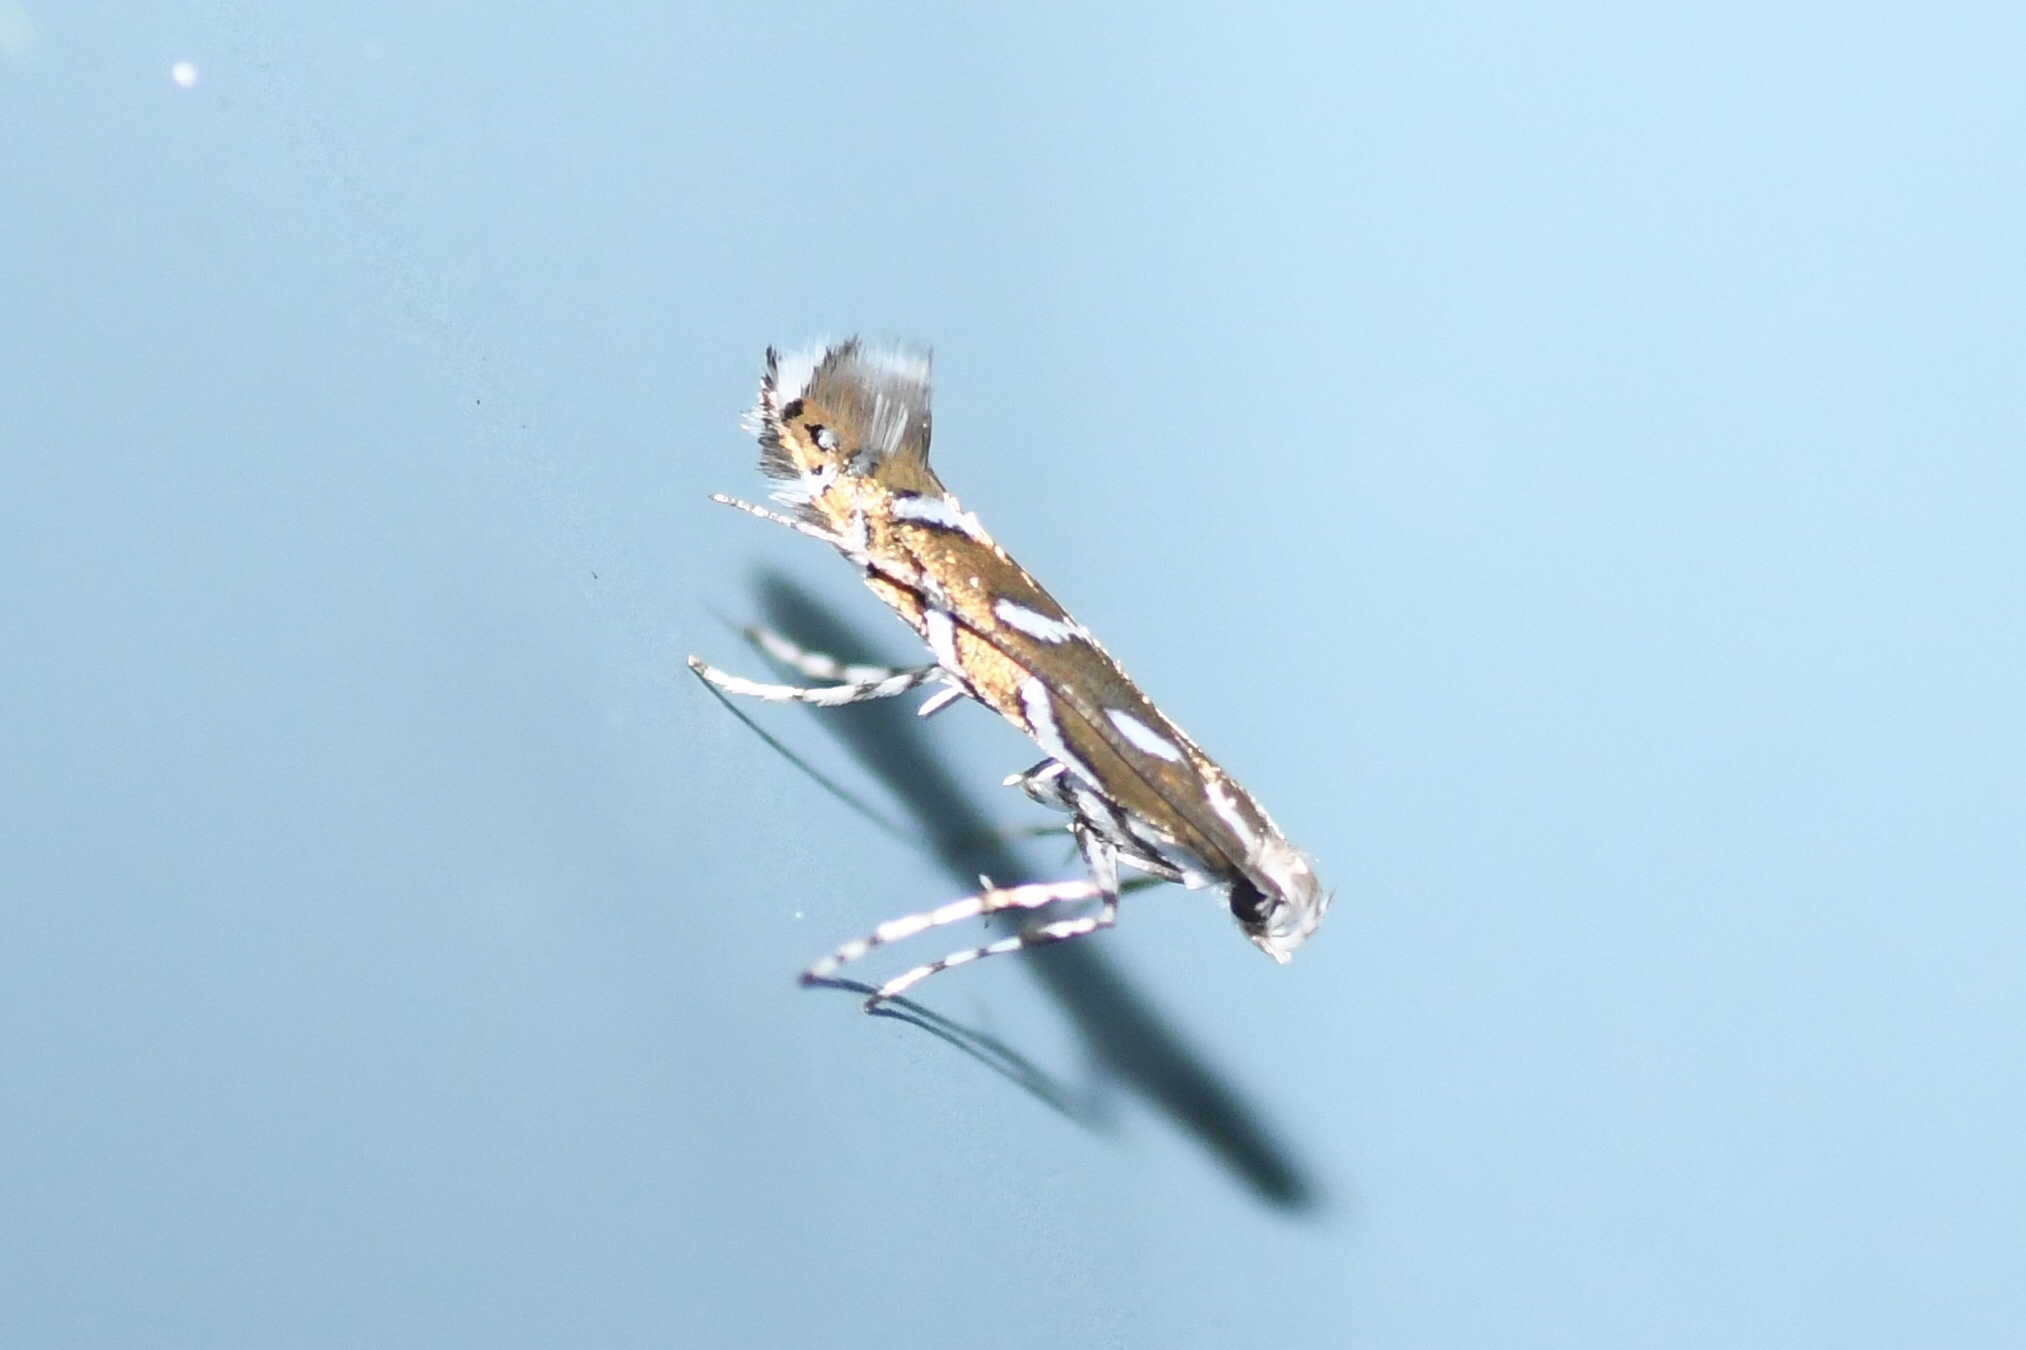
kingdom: Animalia
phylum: Arthropoda
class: Insecta
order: Lepidoptera
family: Gracillariidae
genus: Parectopa
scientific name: Parectopa plantaginisella
